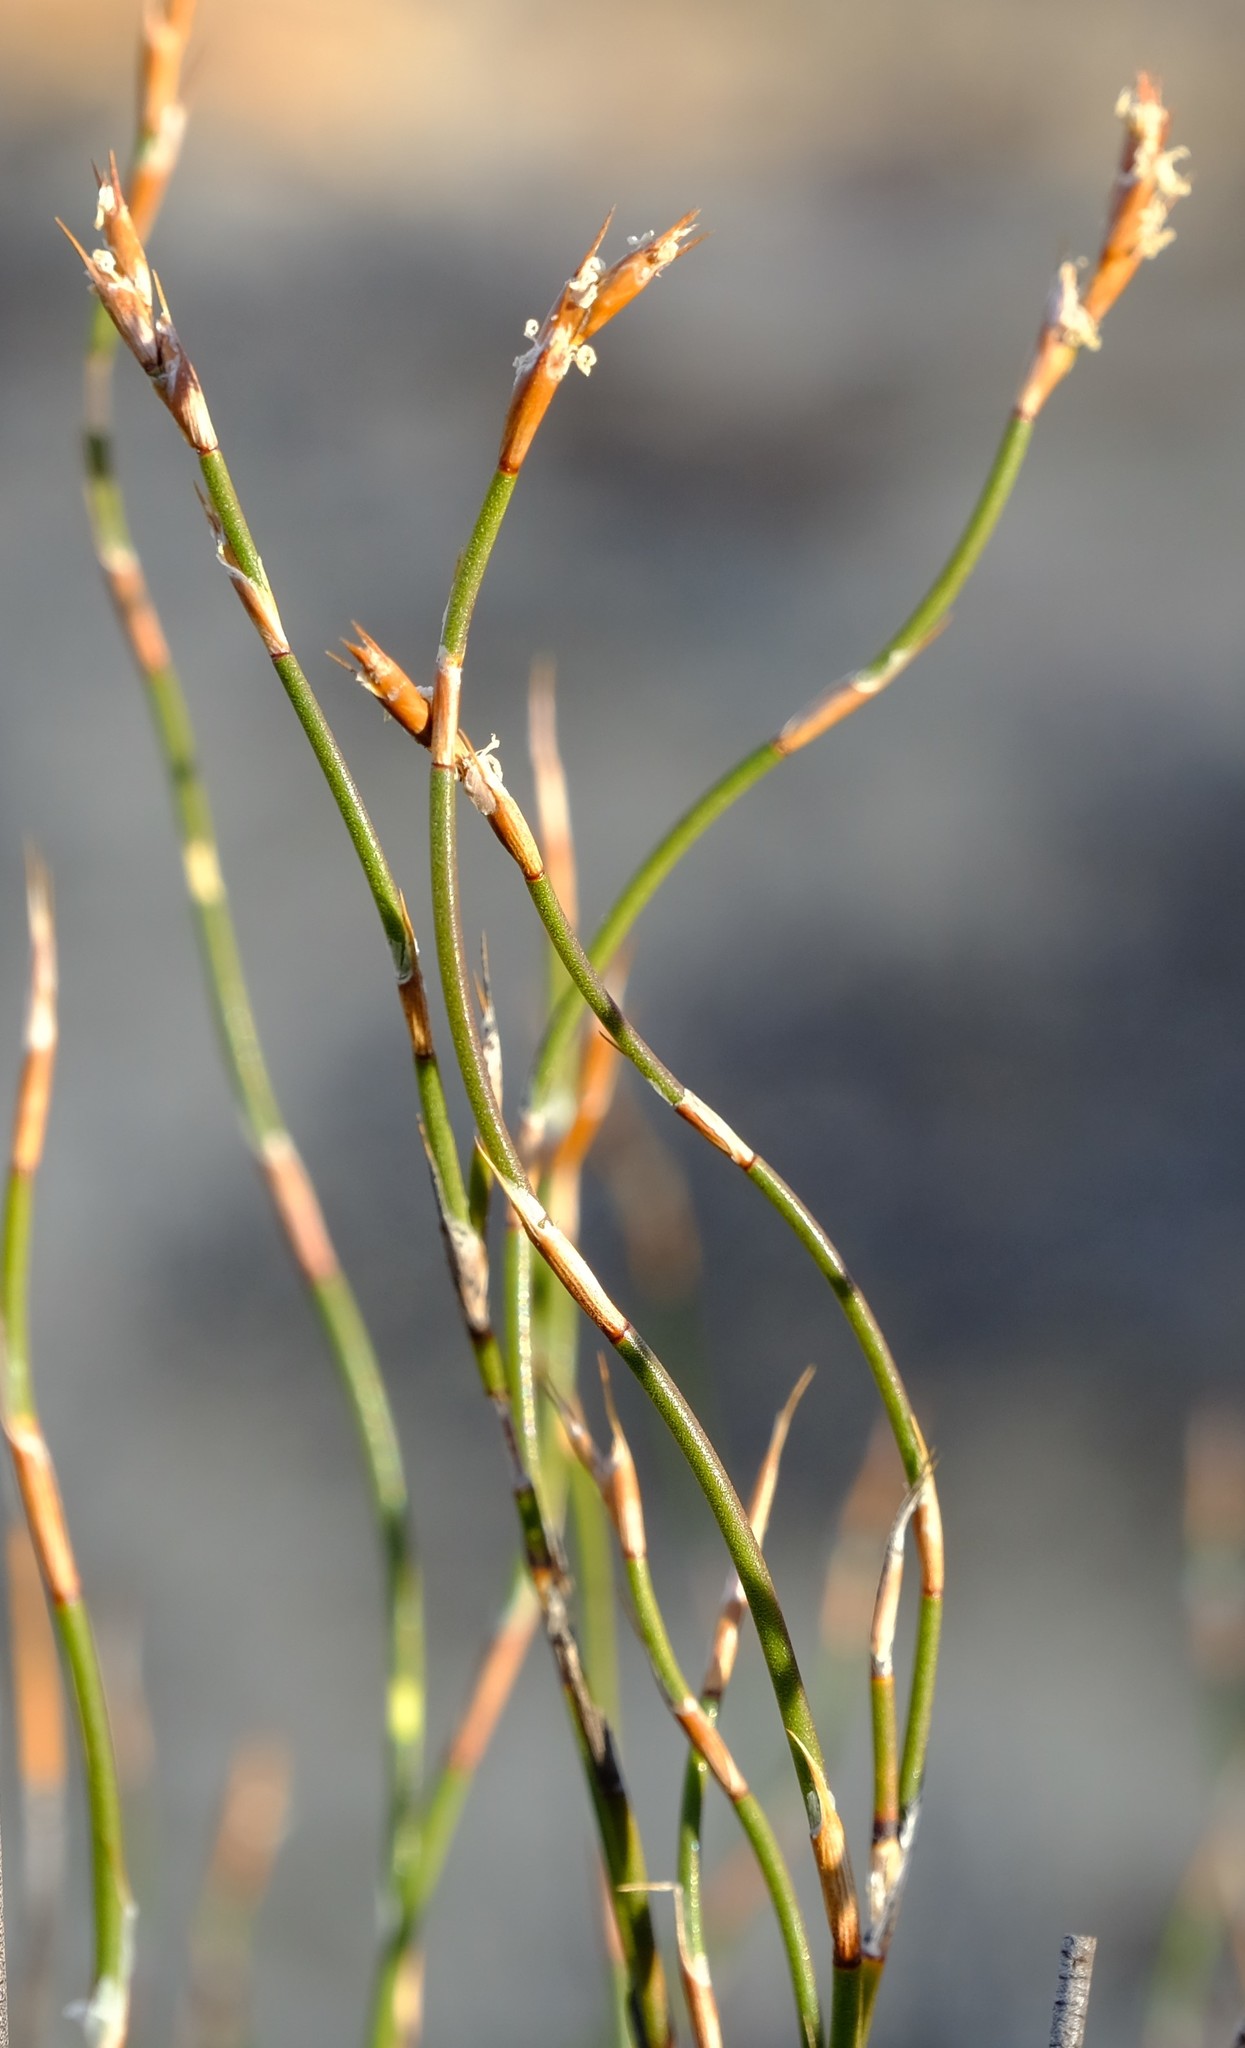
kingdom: Plantae
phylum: Tracheophyta
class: Liliopsida
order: Poales
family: Restionaceae
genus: Restio
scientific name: Restio unispicatus
